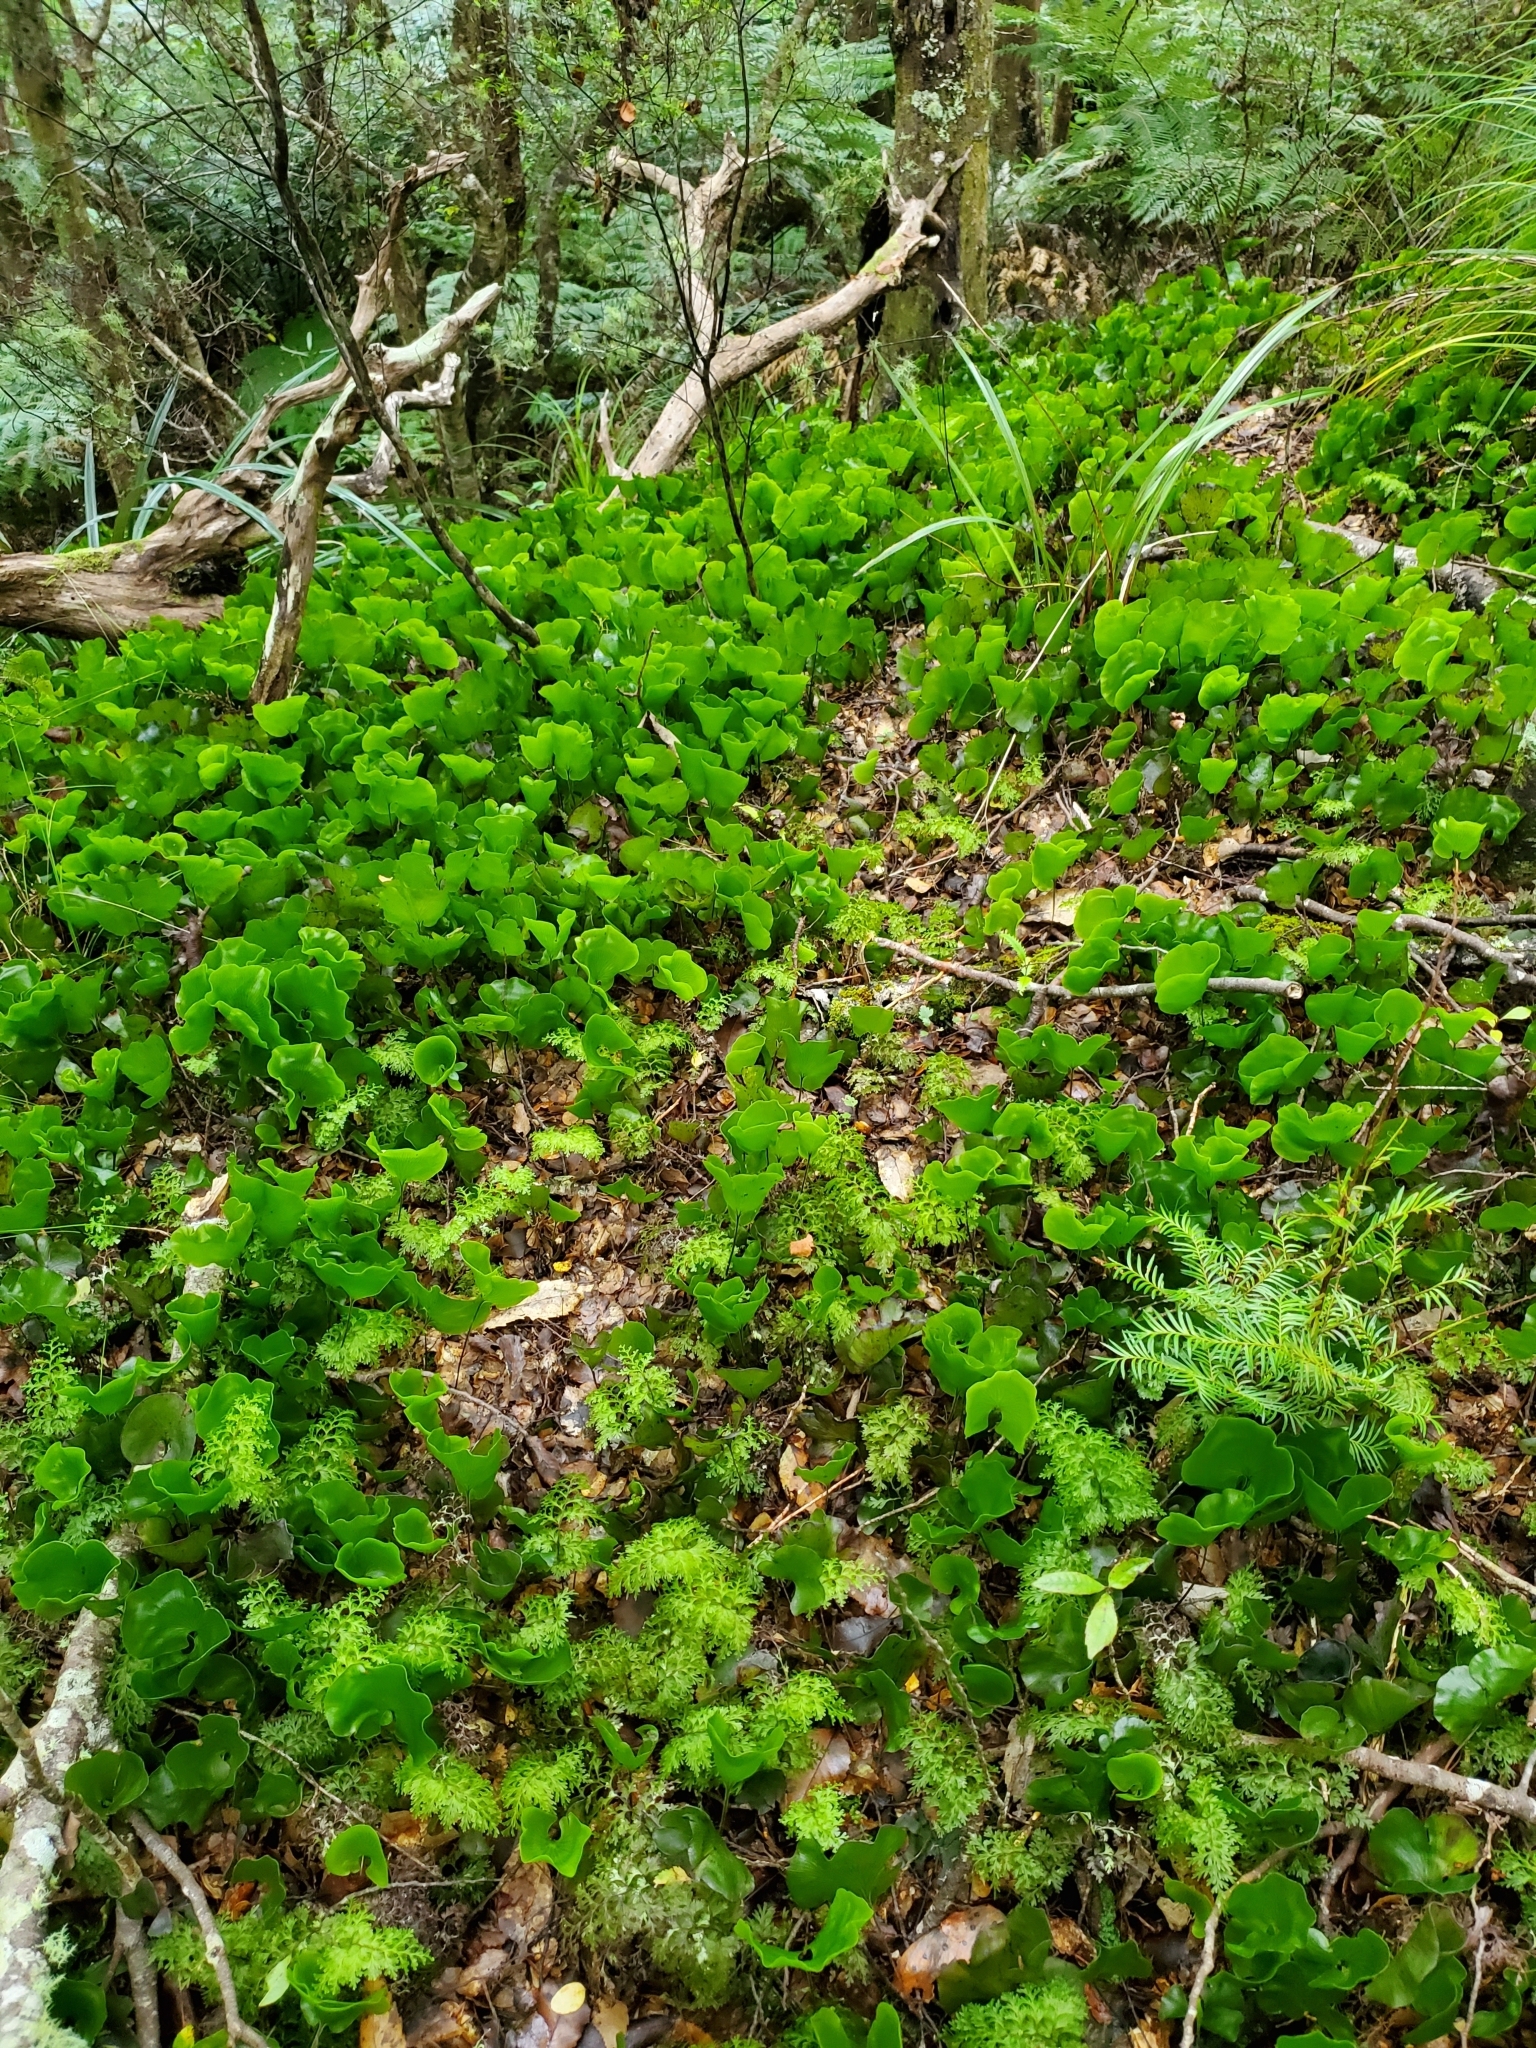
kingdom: Plantae
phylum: Tracheophyta
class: Polypodiopsida
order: Hymenophyllales
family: Hymenophyllaceae
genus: Hymenophyllum
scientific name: Hymenophyllum nephrophyllum
